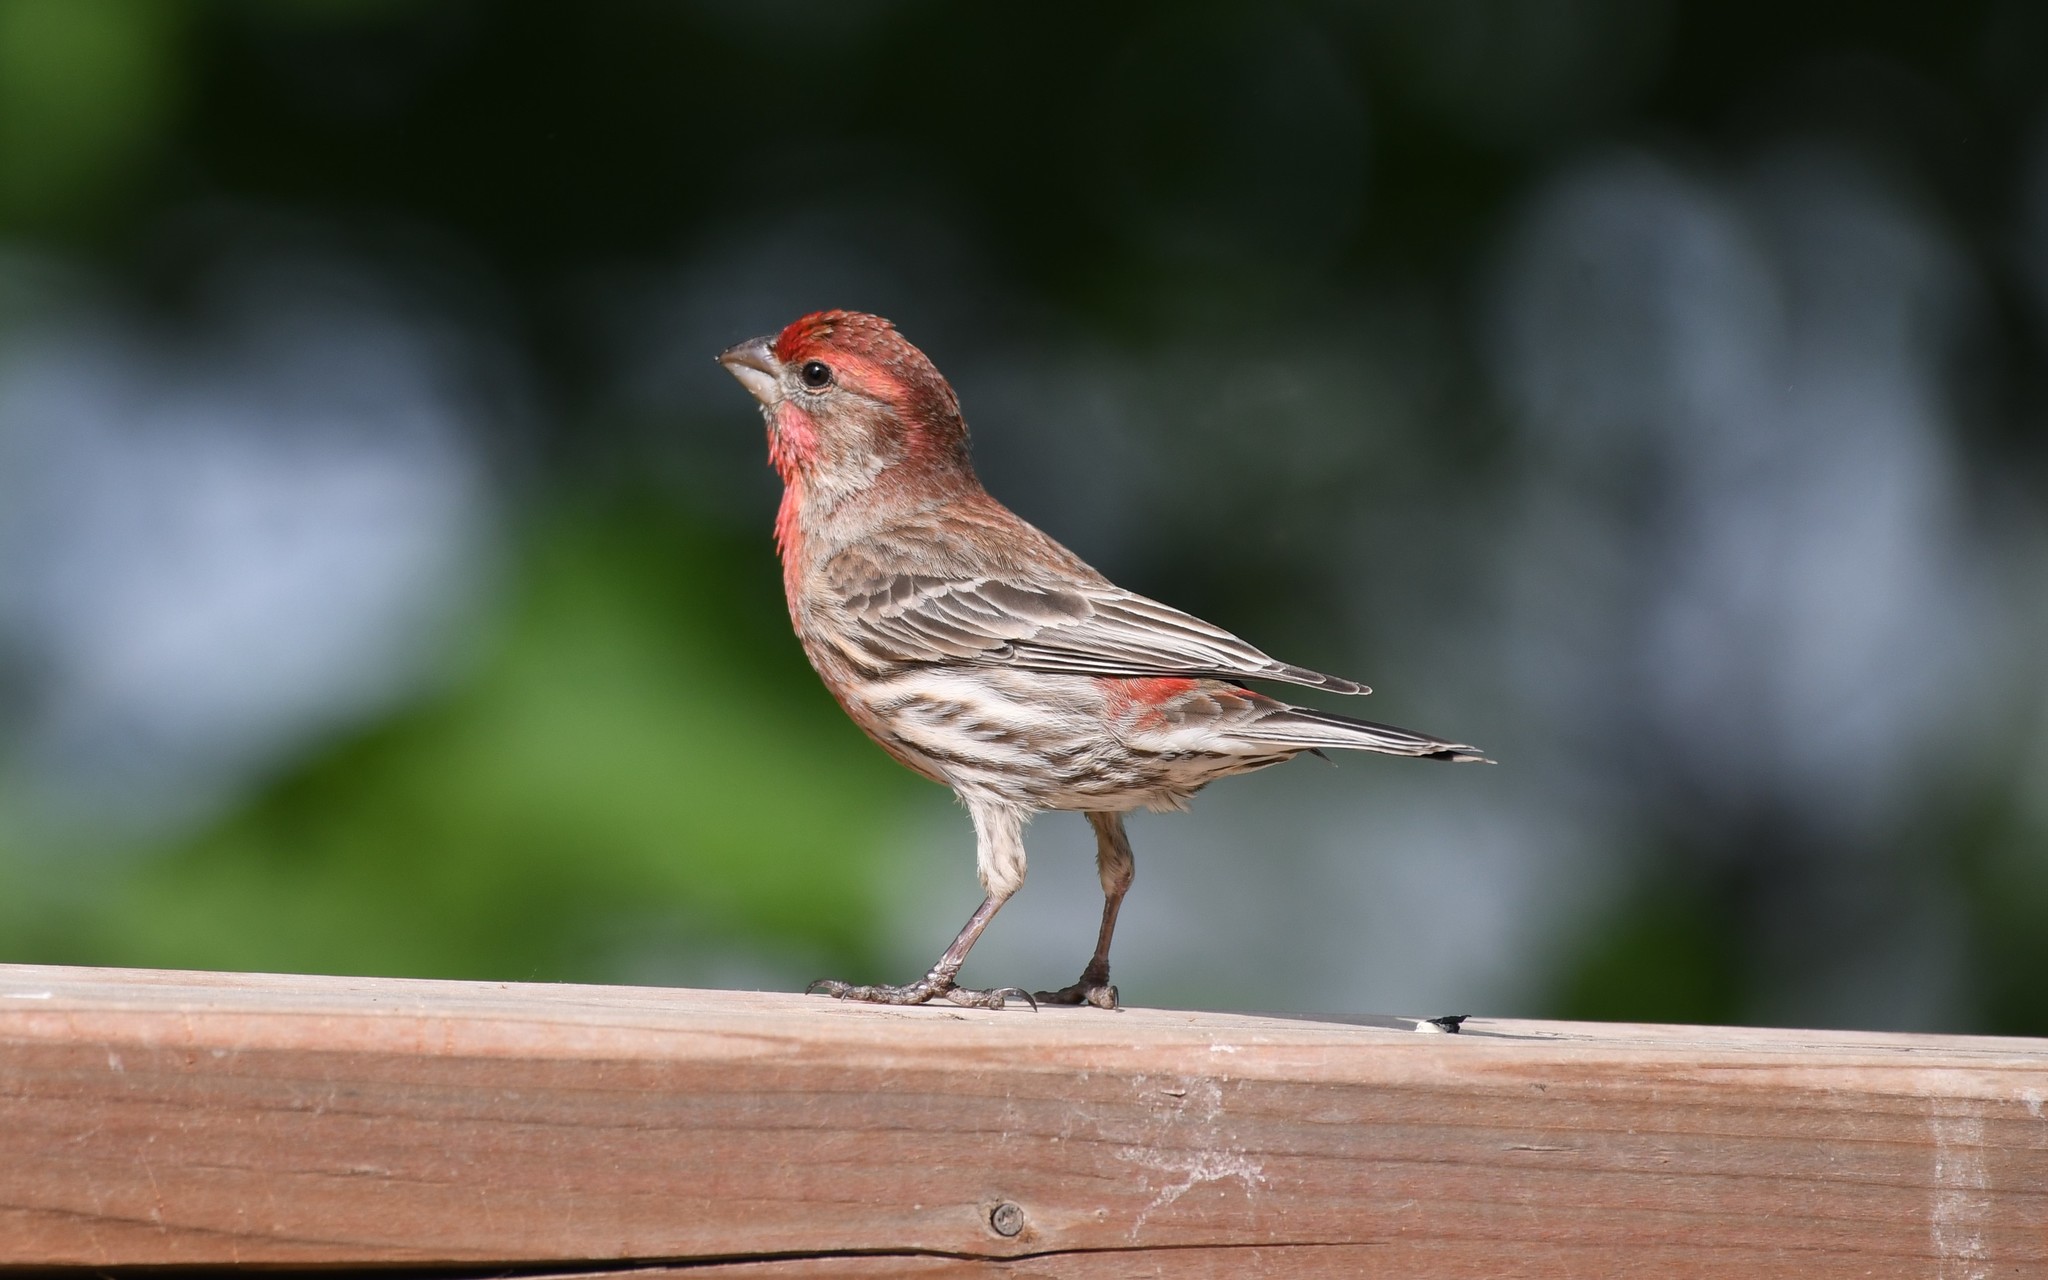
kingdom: Animalia
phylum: Chordata
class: Aves
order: Passeriformes
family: Fringillidae
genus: Haemorhous
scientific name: Haemorhous mexicanus
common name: House finch
